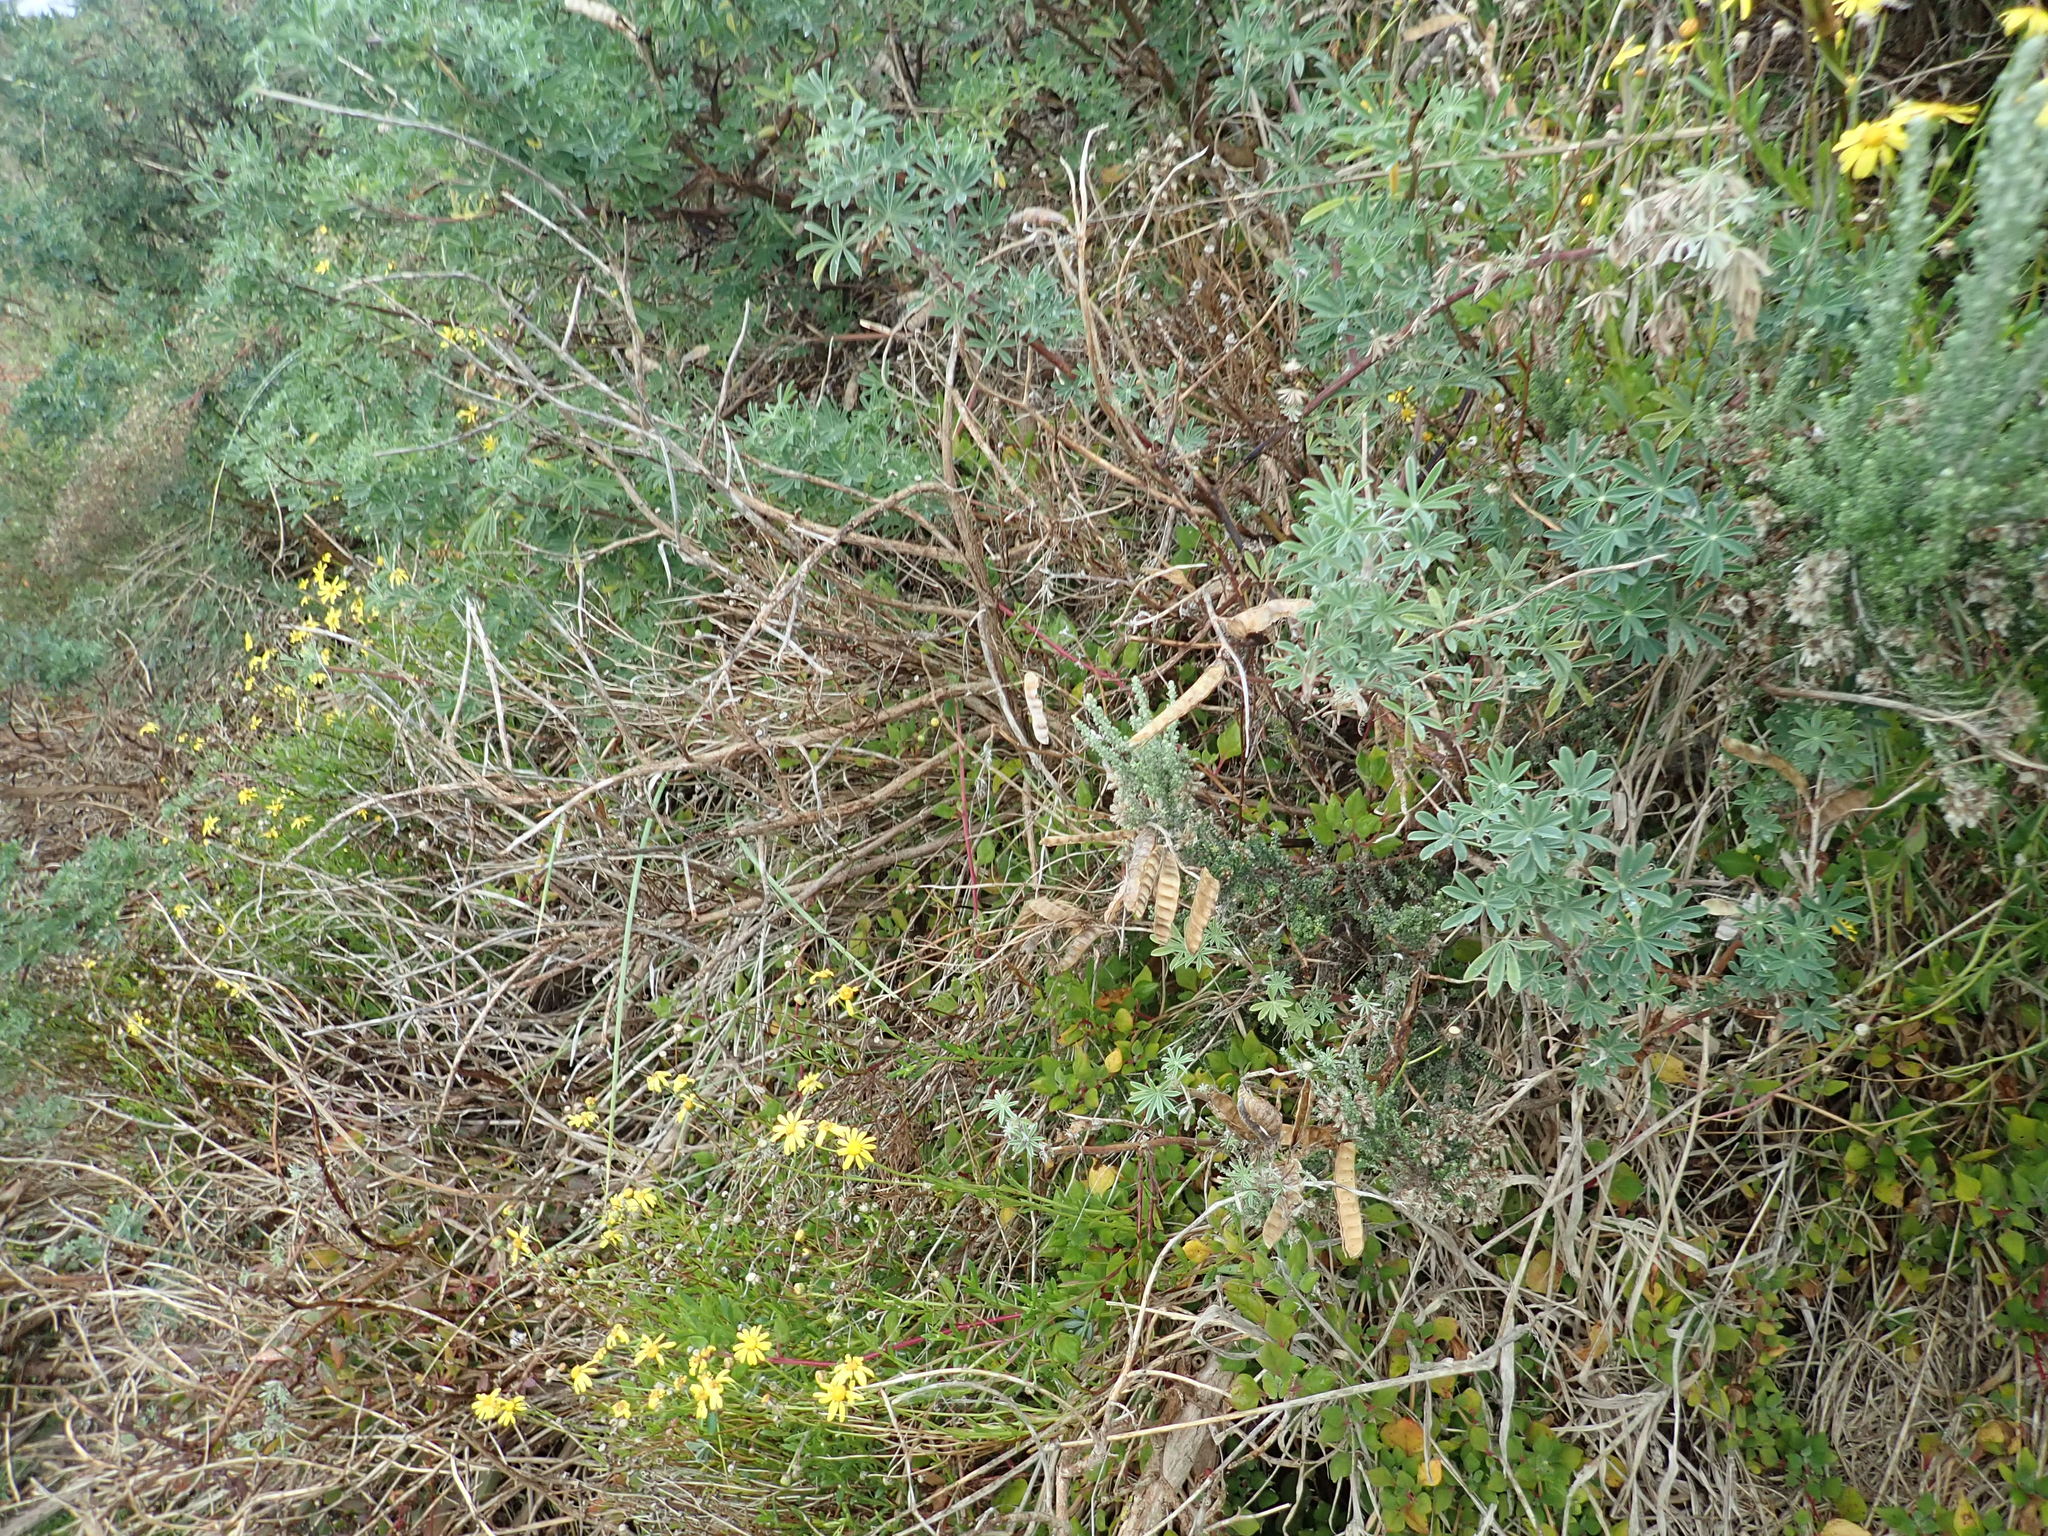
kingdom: Plantae
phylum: Tracheophyta
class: Magnoliopsida
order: Caryophyllales
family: Aizoaceae
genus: Tetragonia
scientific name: Tetragonia implexicoma
